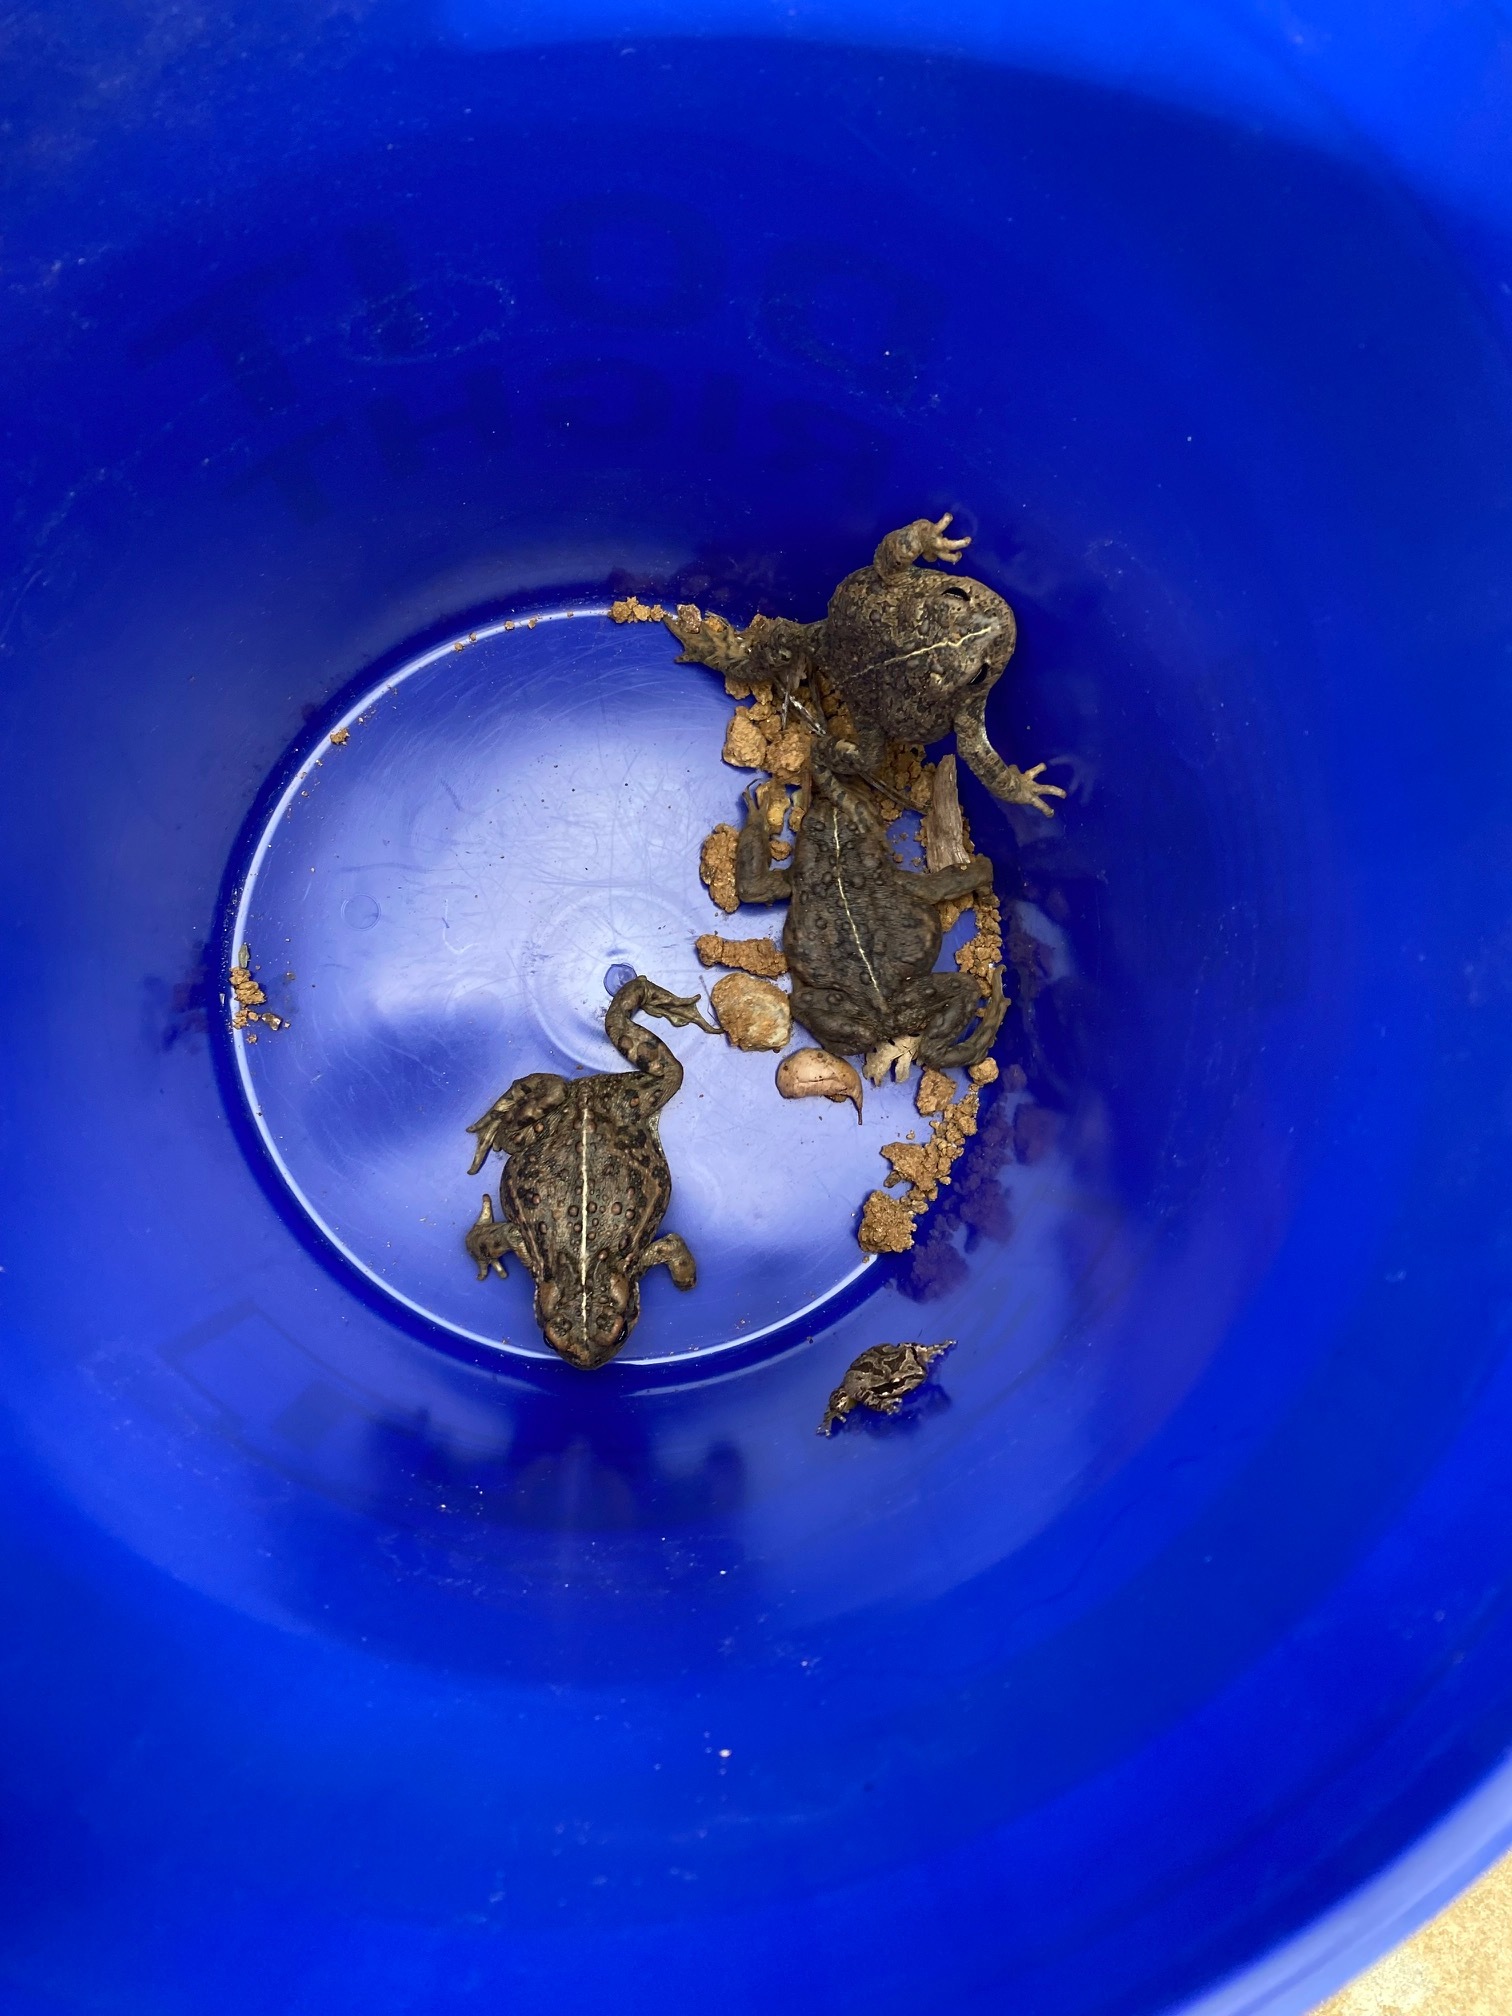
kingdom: Animalia
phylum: Chordata
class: Amphibia
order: Anura
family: Bufonidae
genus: Anaxyrus
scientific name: Anaxyrus boreas
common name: Western toad
